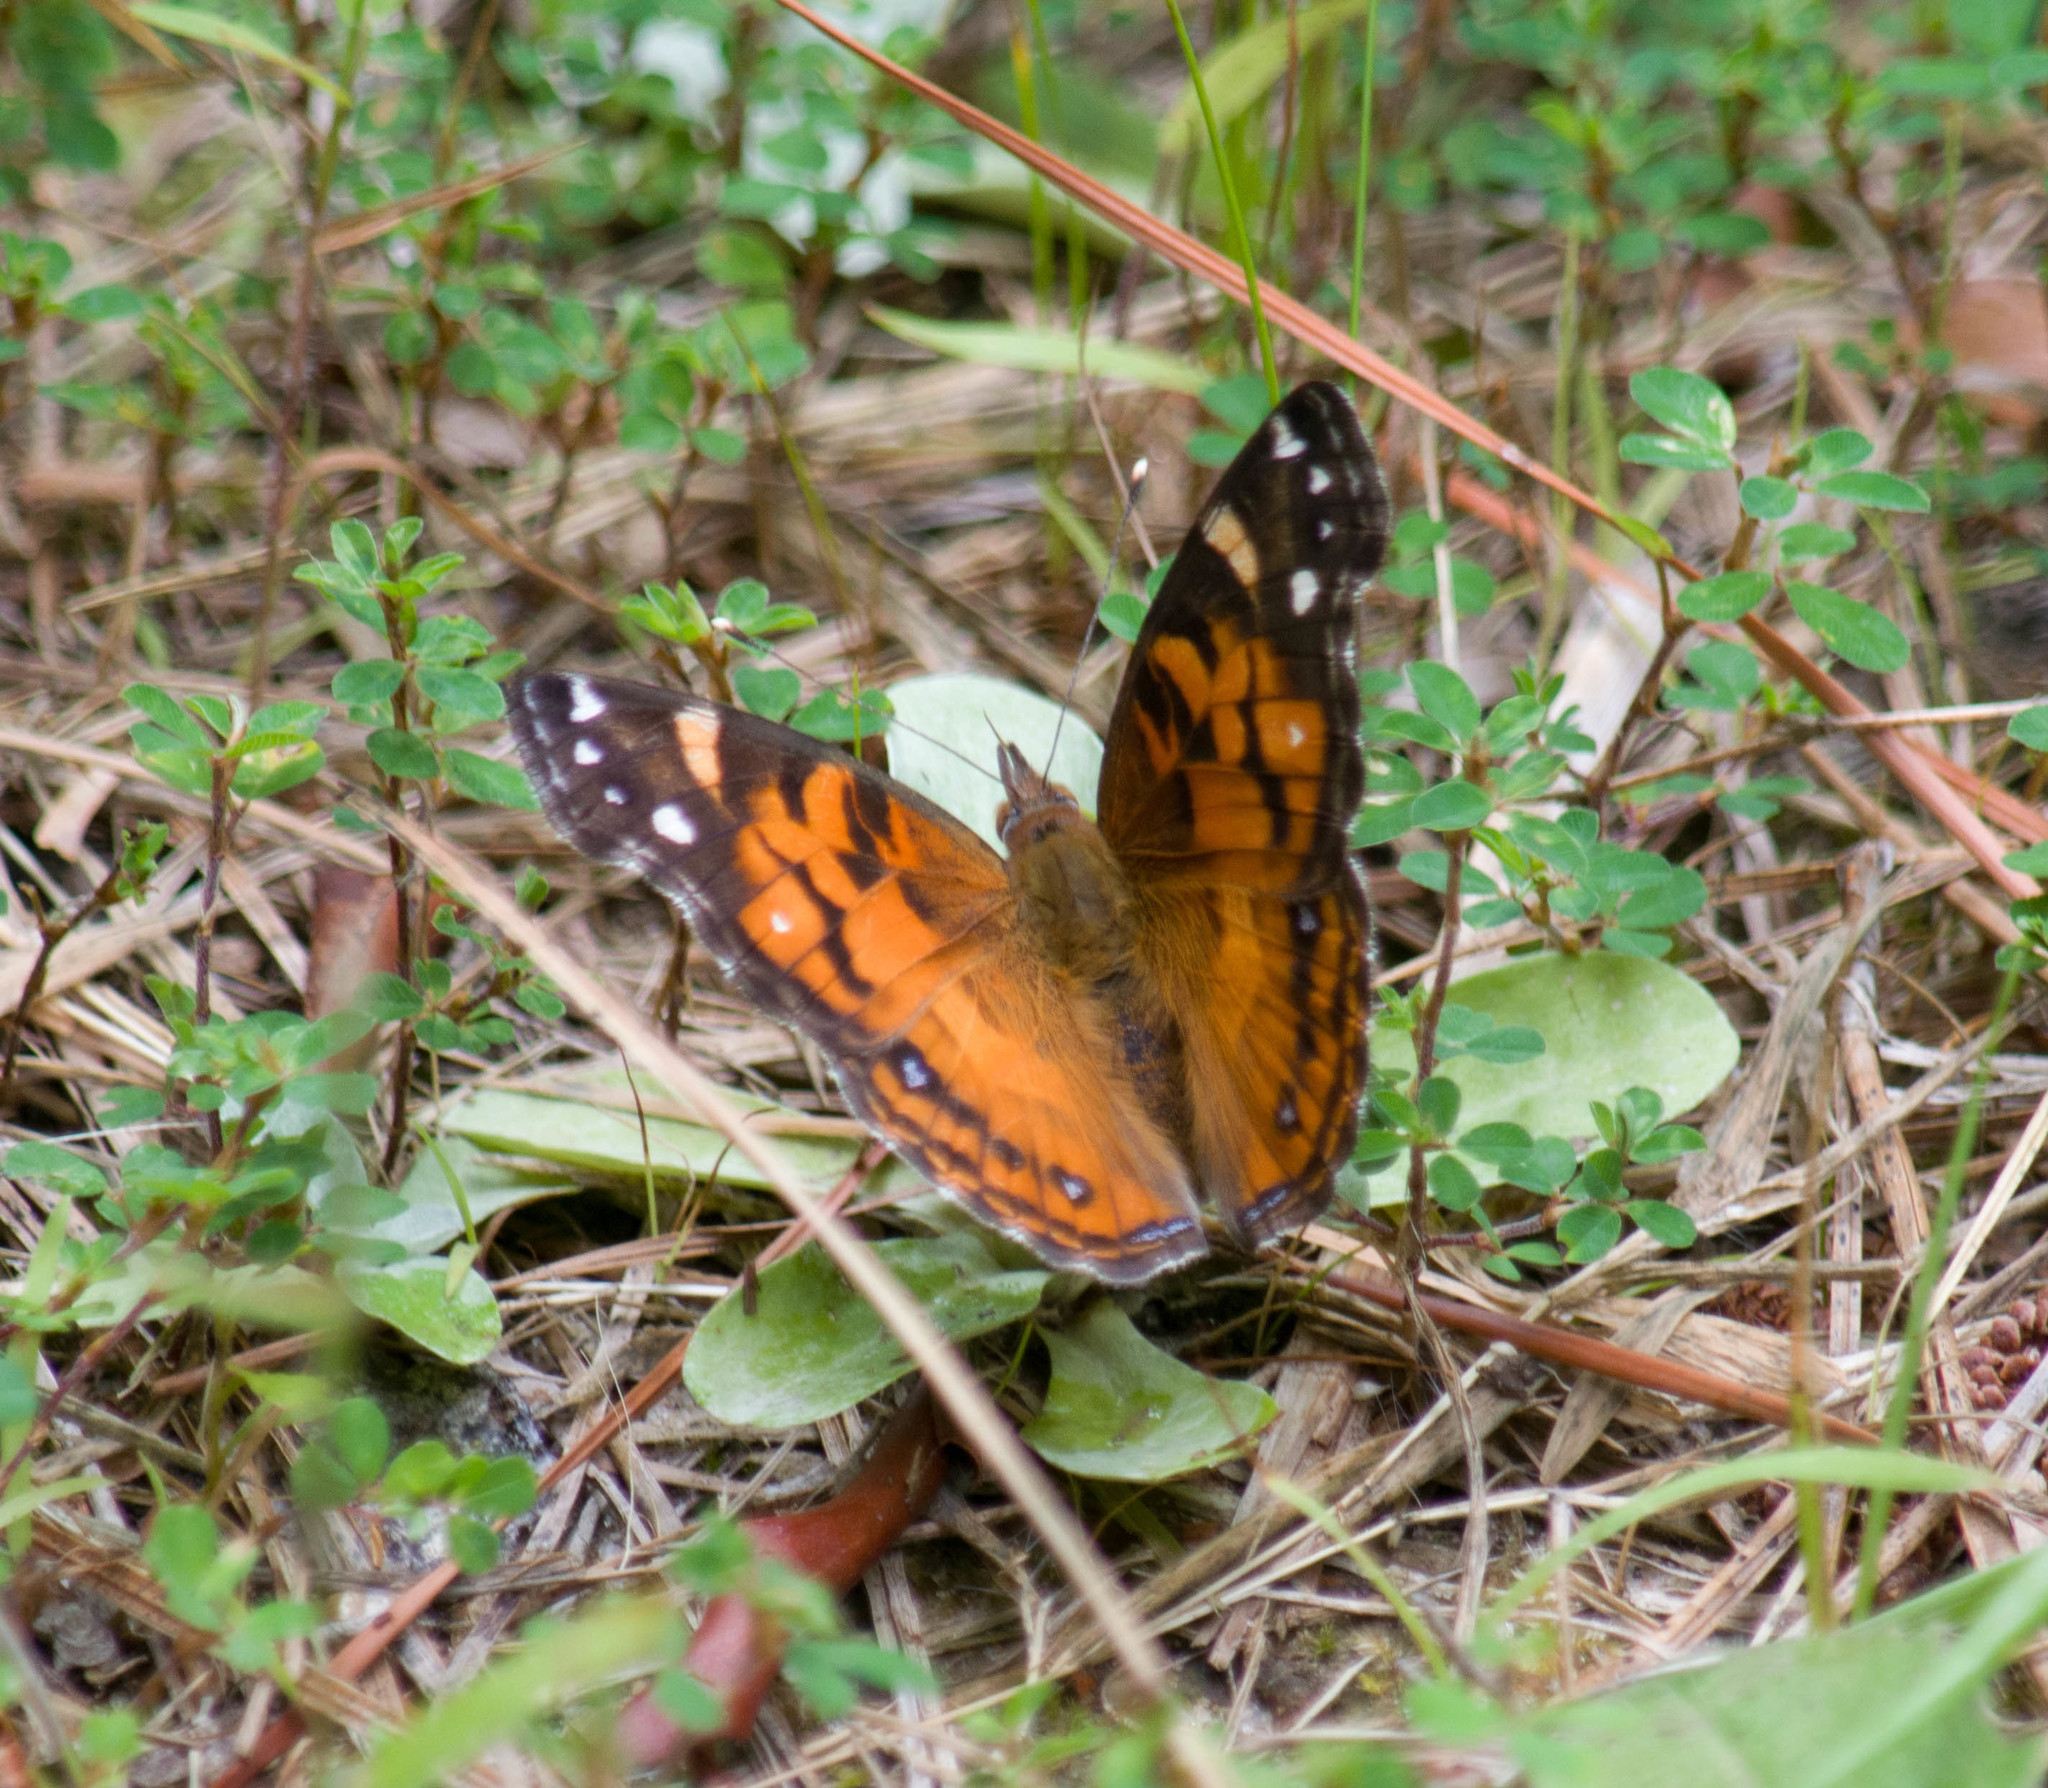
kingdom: Animalia
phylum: Arthropoda
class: Insecta
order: Lepidoptera
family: Nymphalidae
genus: Vanessa
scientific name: Vanessa virginiensis
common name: American lady
